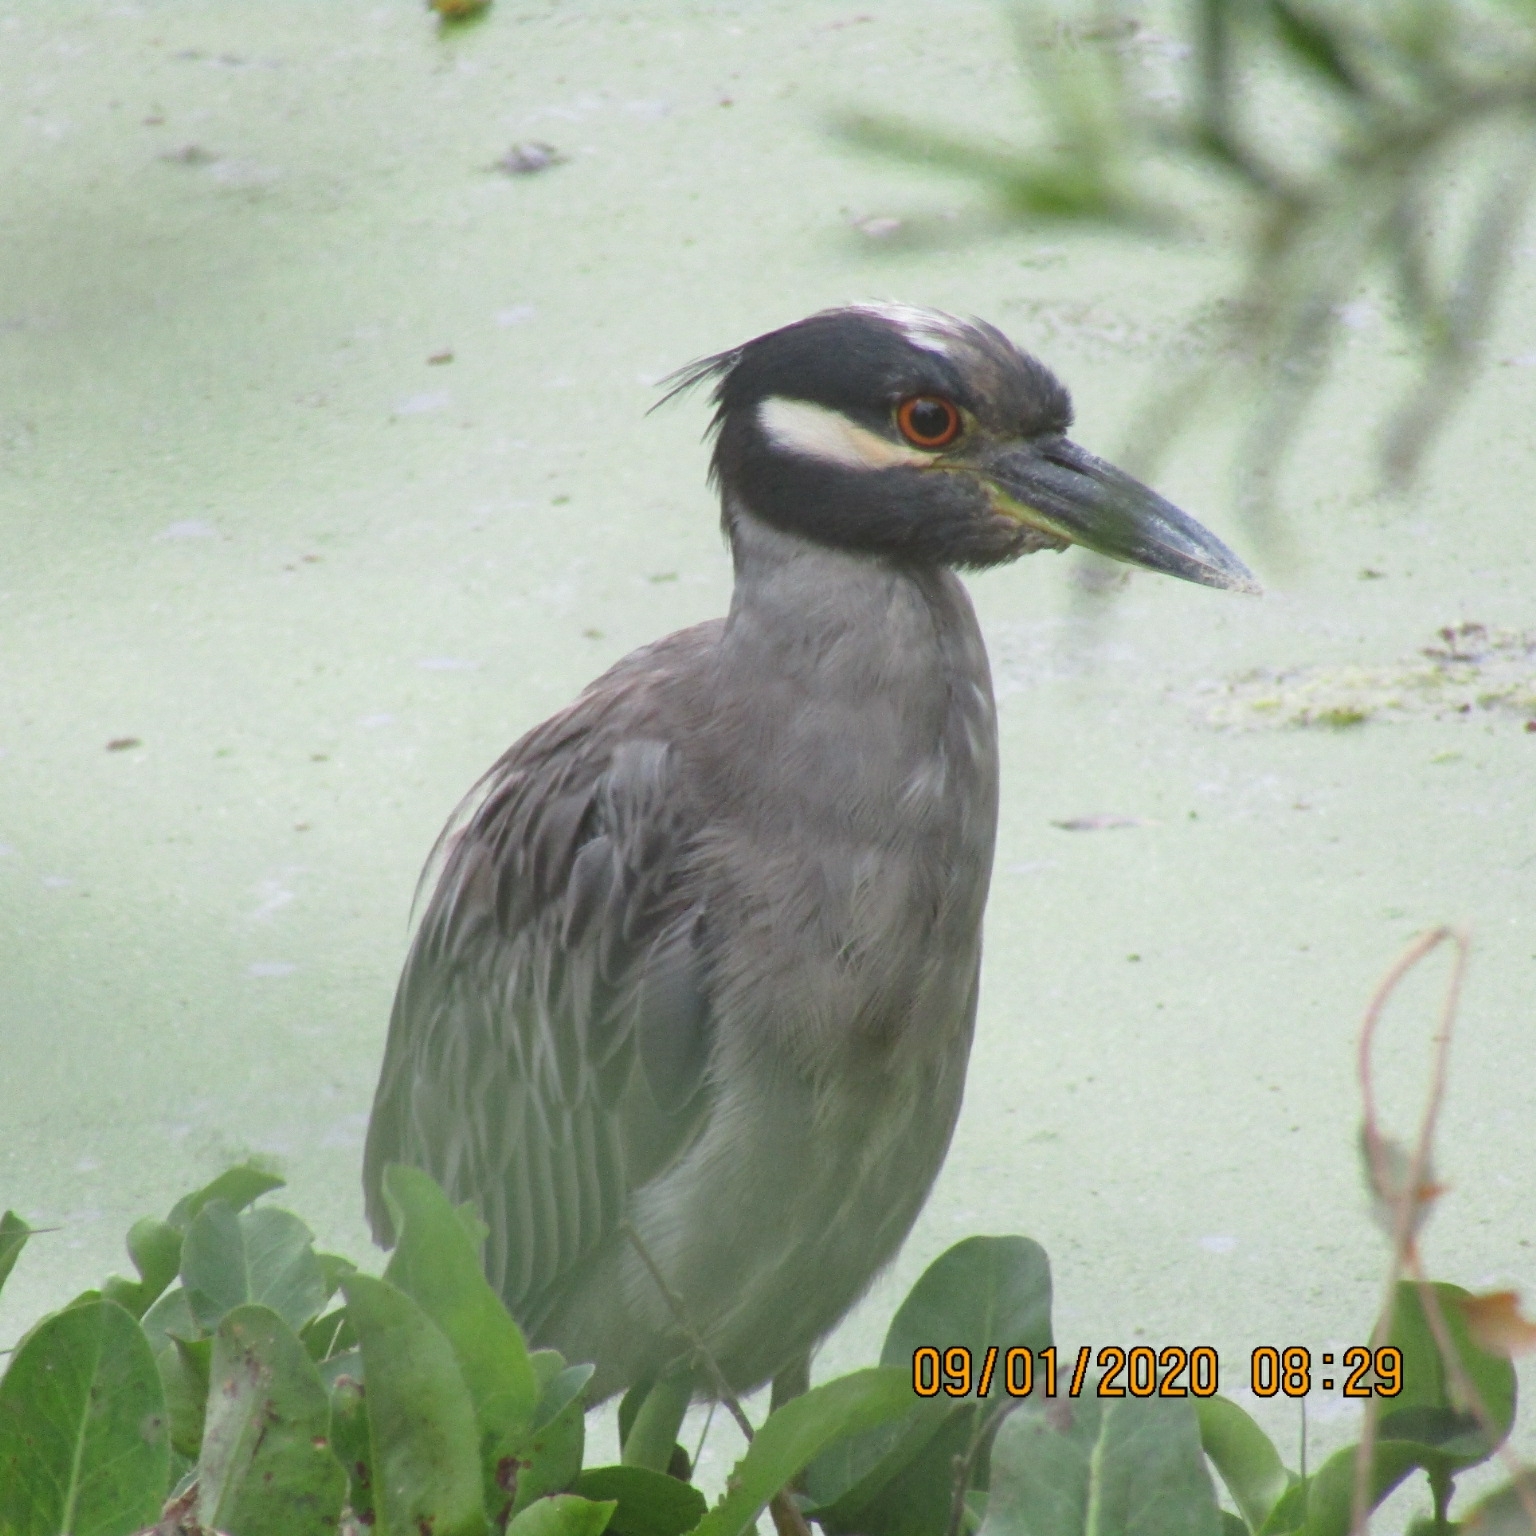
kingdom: Animalia
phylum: Chordata
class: Aves
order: Pelecaniformes
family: Ardeidae
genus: Nyctanassa
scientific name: Nyctanassa violacea
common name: Yellow-crowned night heron
